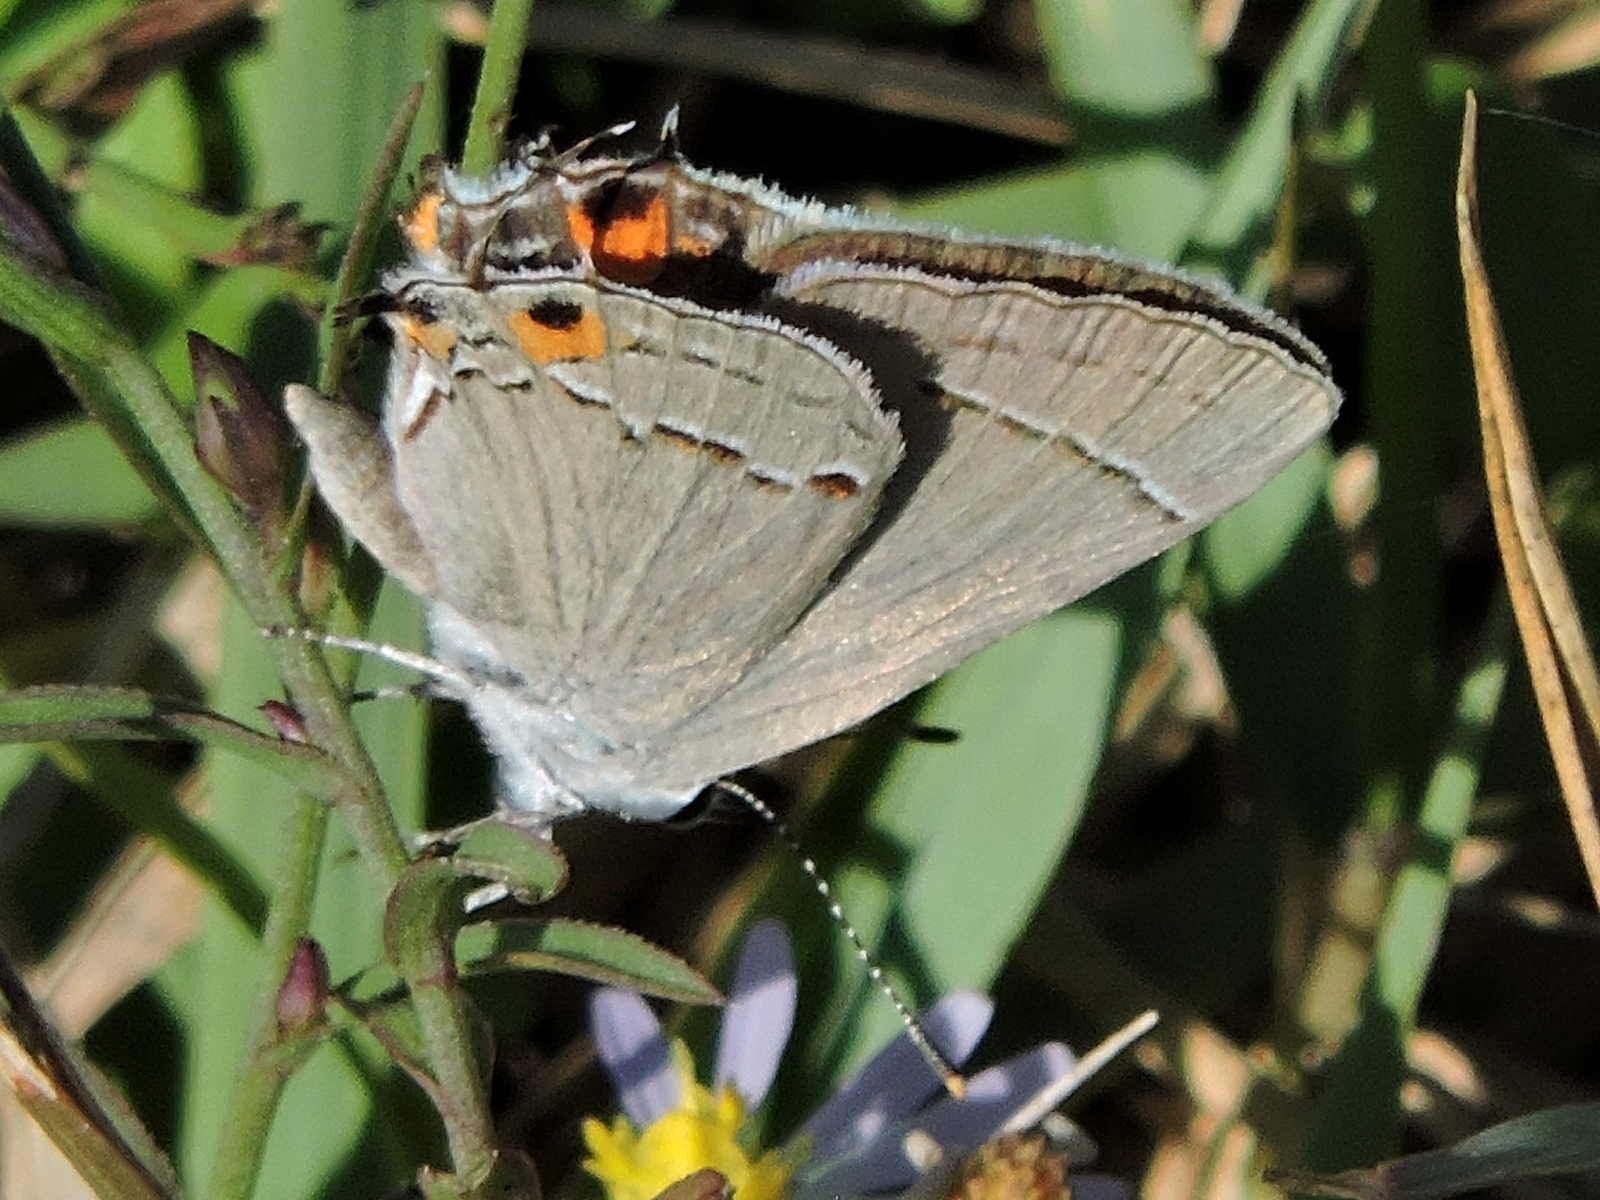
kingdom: Animalia
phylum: Arthropoda
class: Insecta
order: Lepidoptera
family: Lycaenidae
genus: Strymon
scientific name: Strymon melinus
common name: Gray hairstreak
